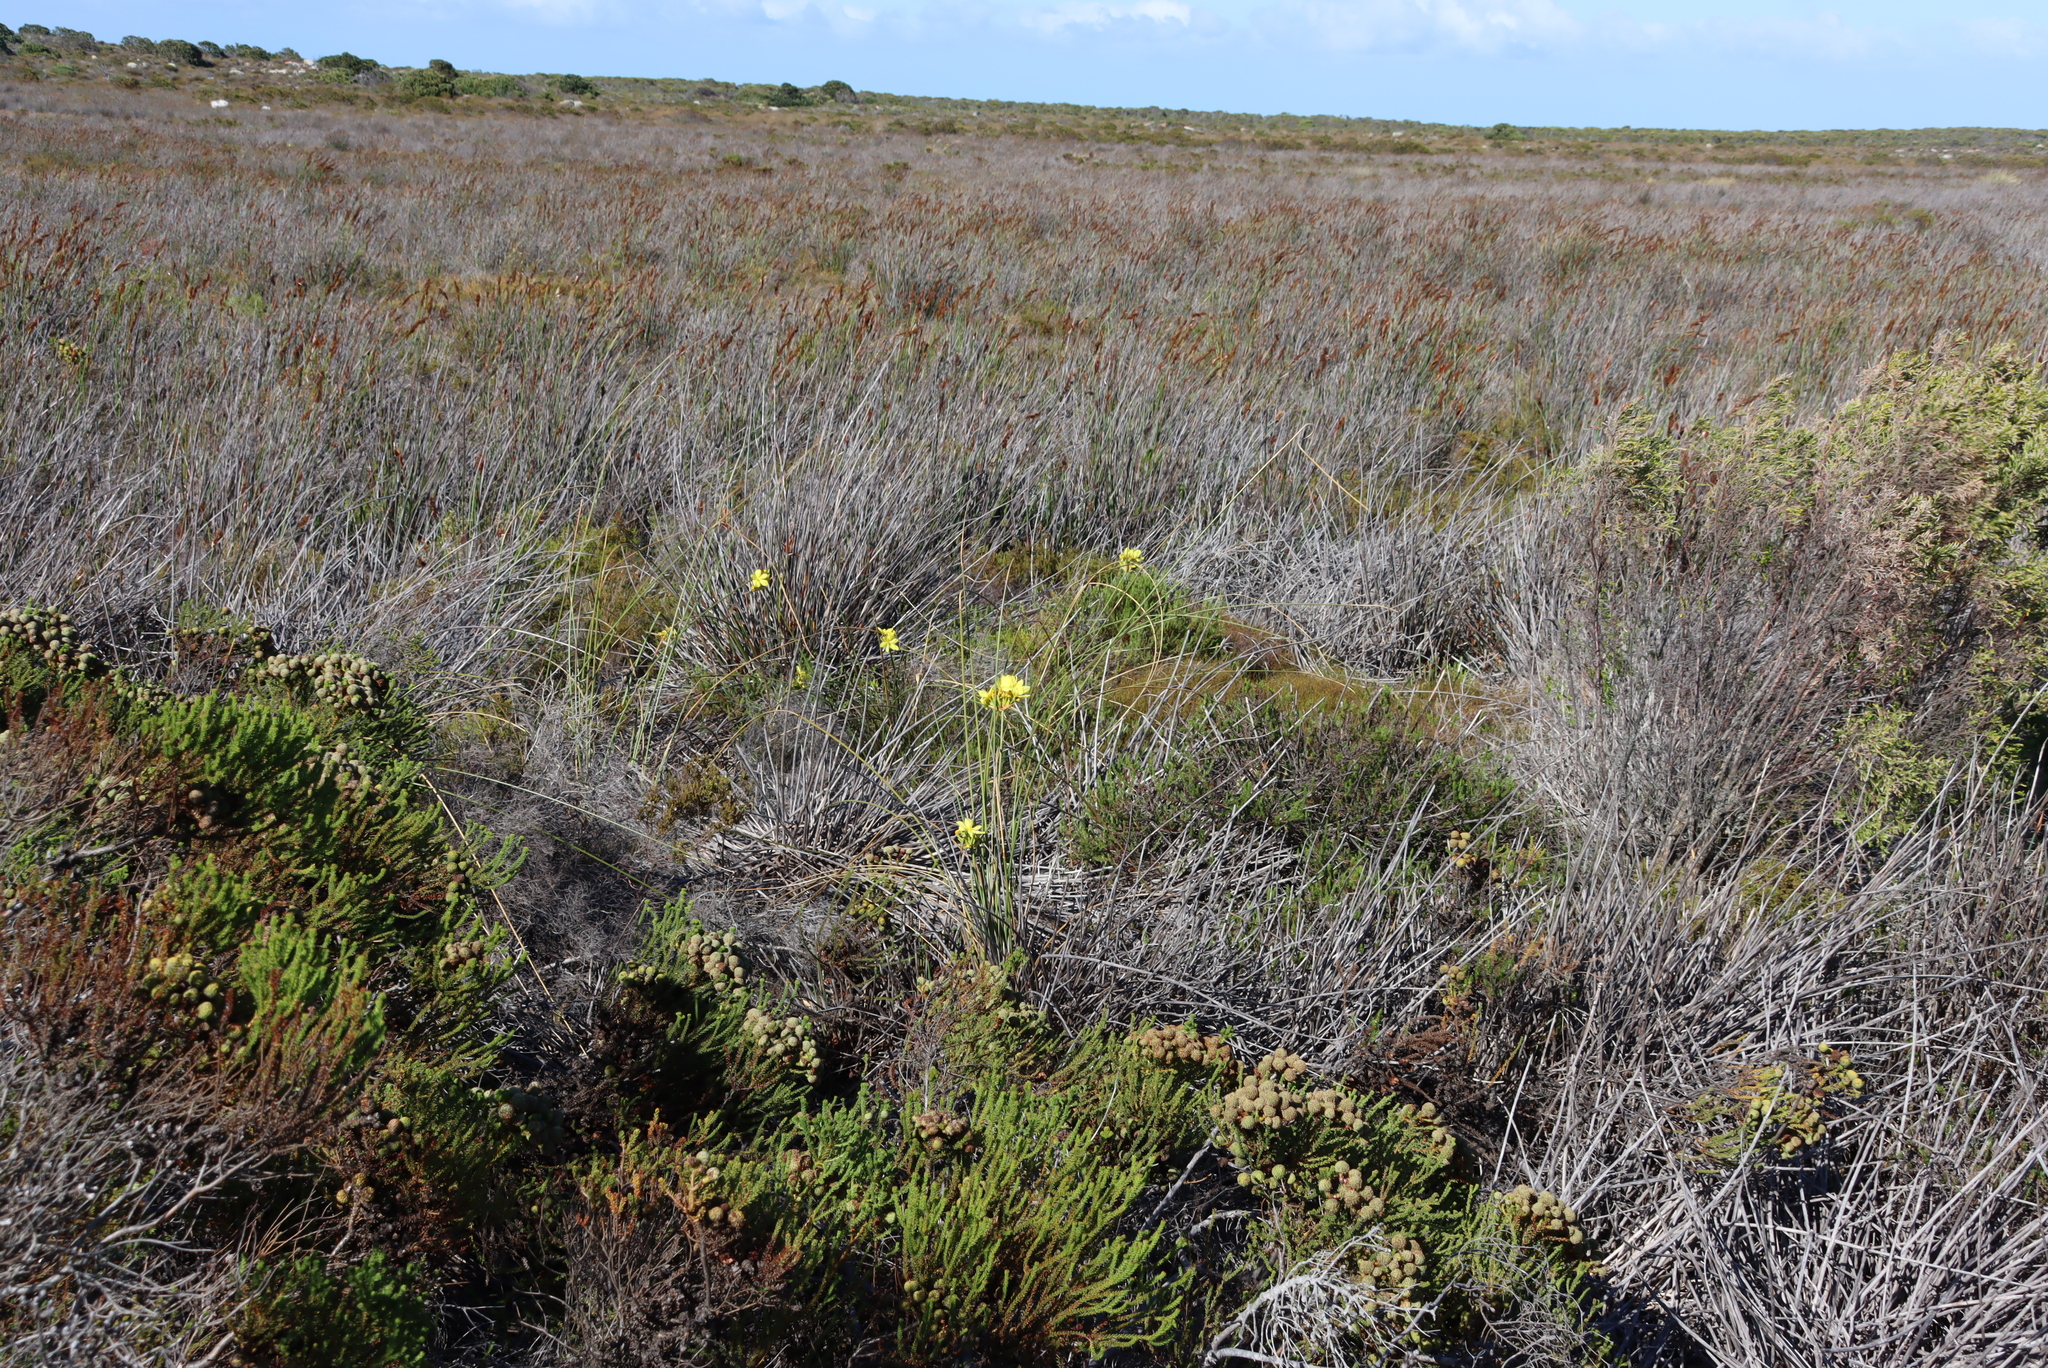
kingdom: Plantae
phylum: Tracheophyta
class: Liliopsida
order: Asparagales
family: Iridaceae
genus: Bobartia
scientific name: Bobartia indica
